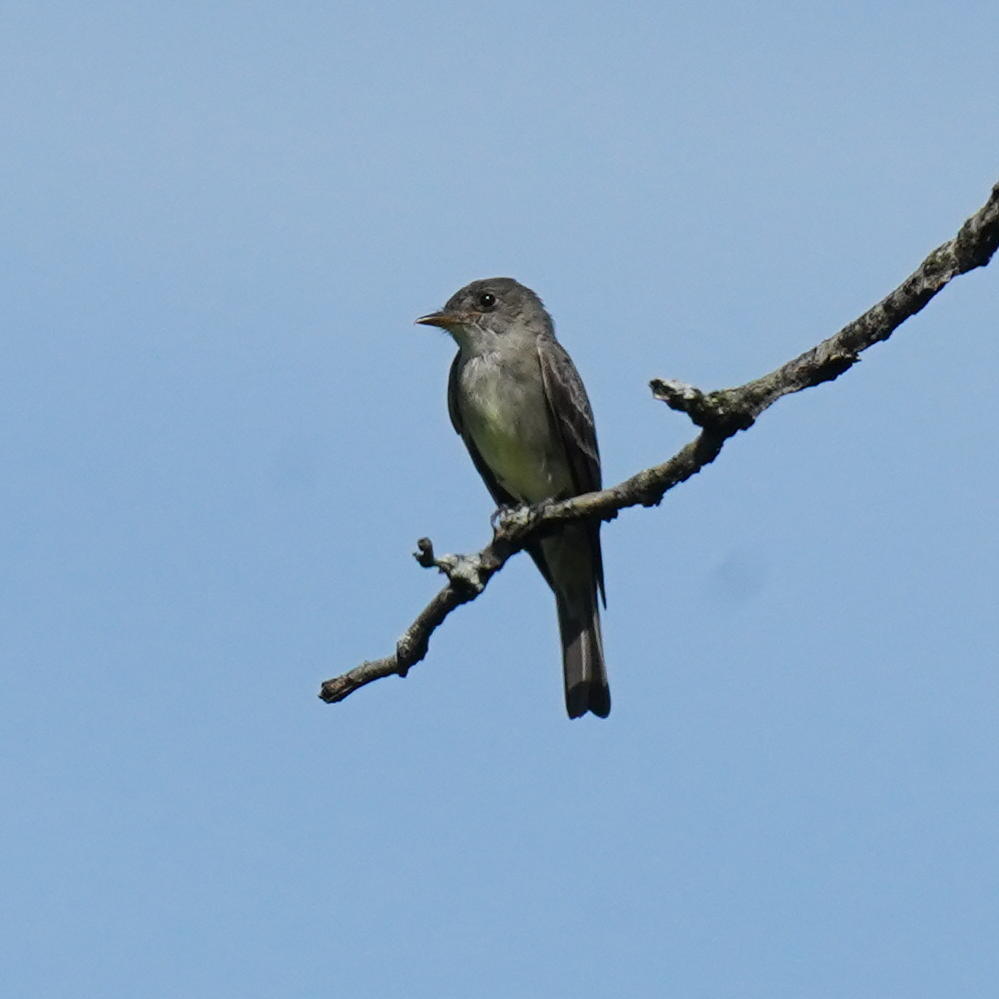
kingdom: Animalia
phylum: Chordata
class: Aves
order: Passeriformes
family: Tyrannidae
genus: Contopus
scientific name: Contopus virens
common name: Eastern wood-pewee
